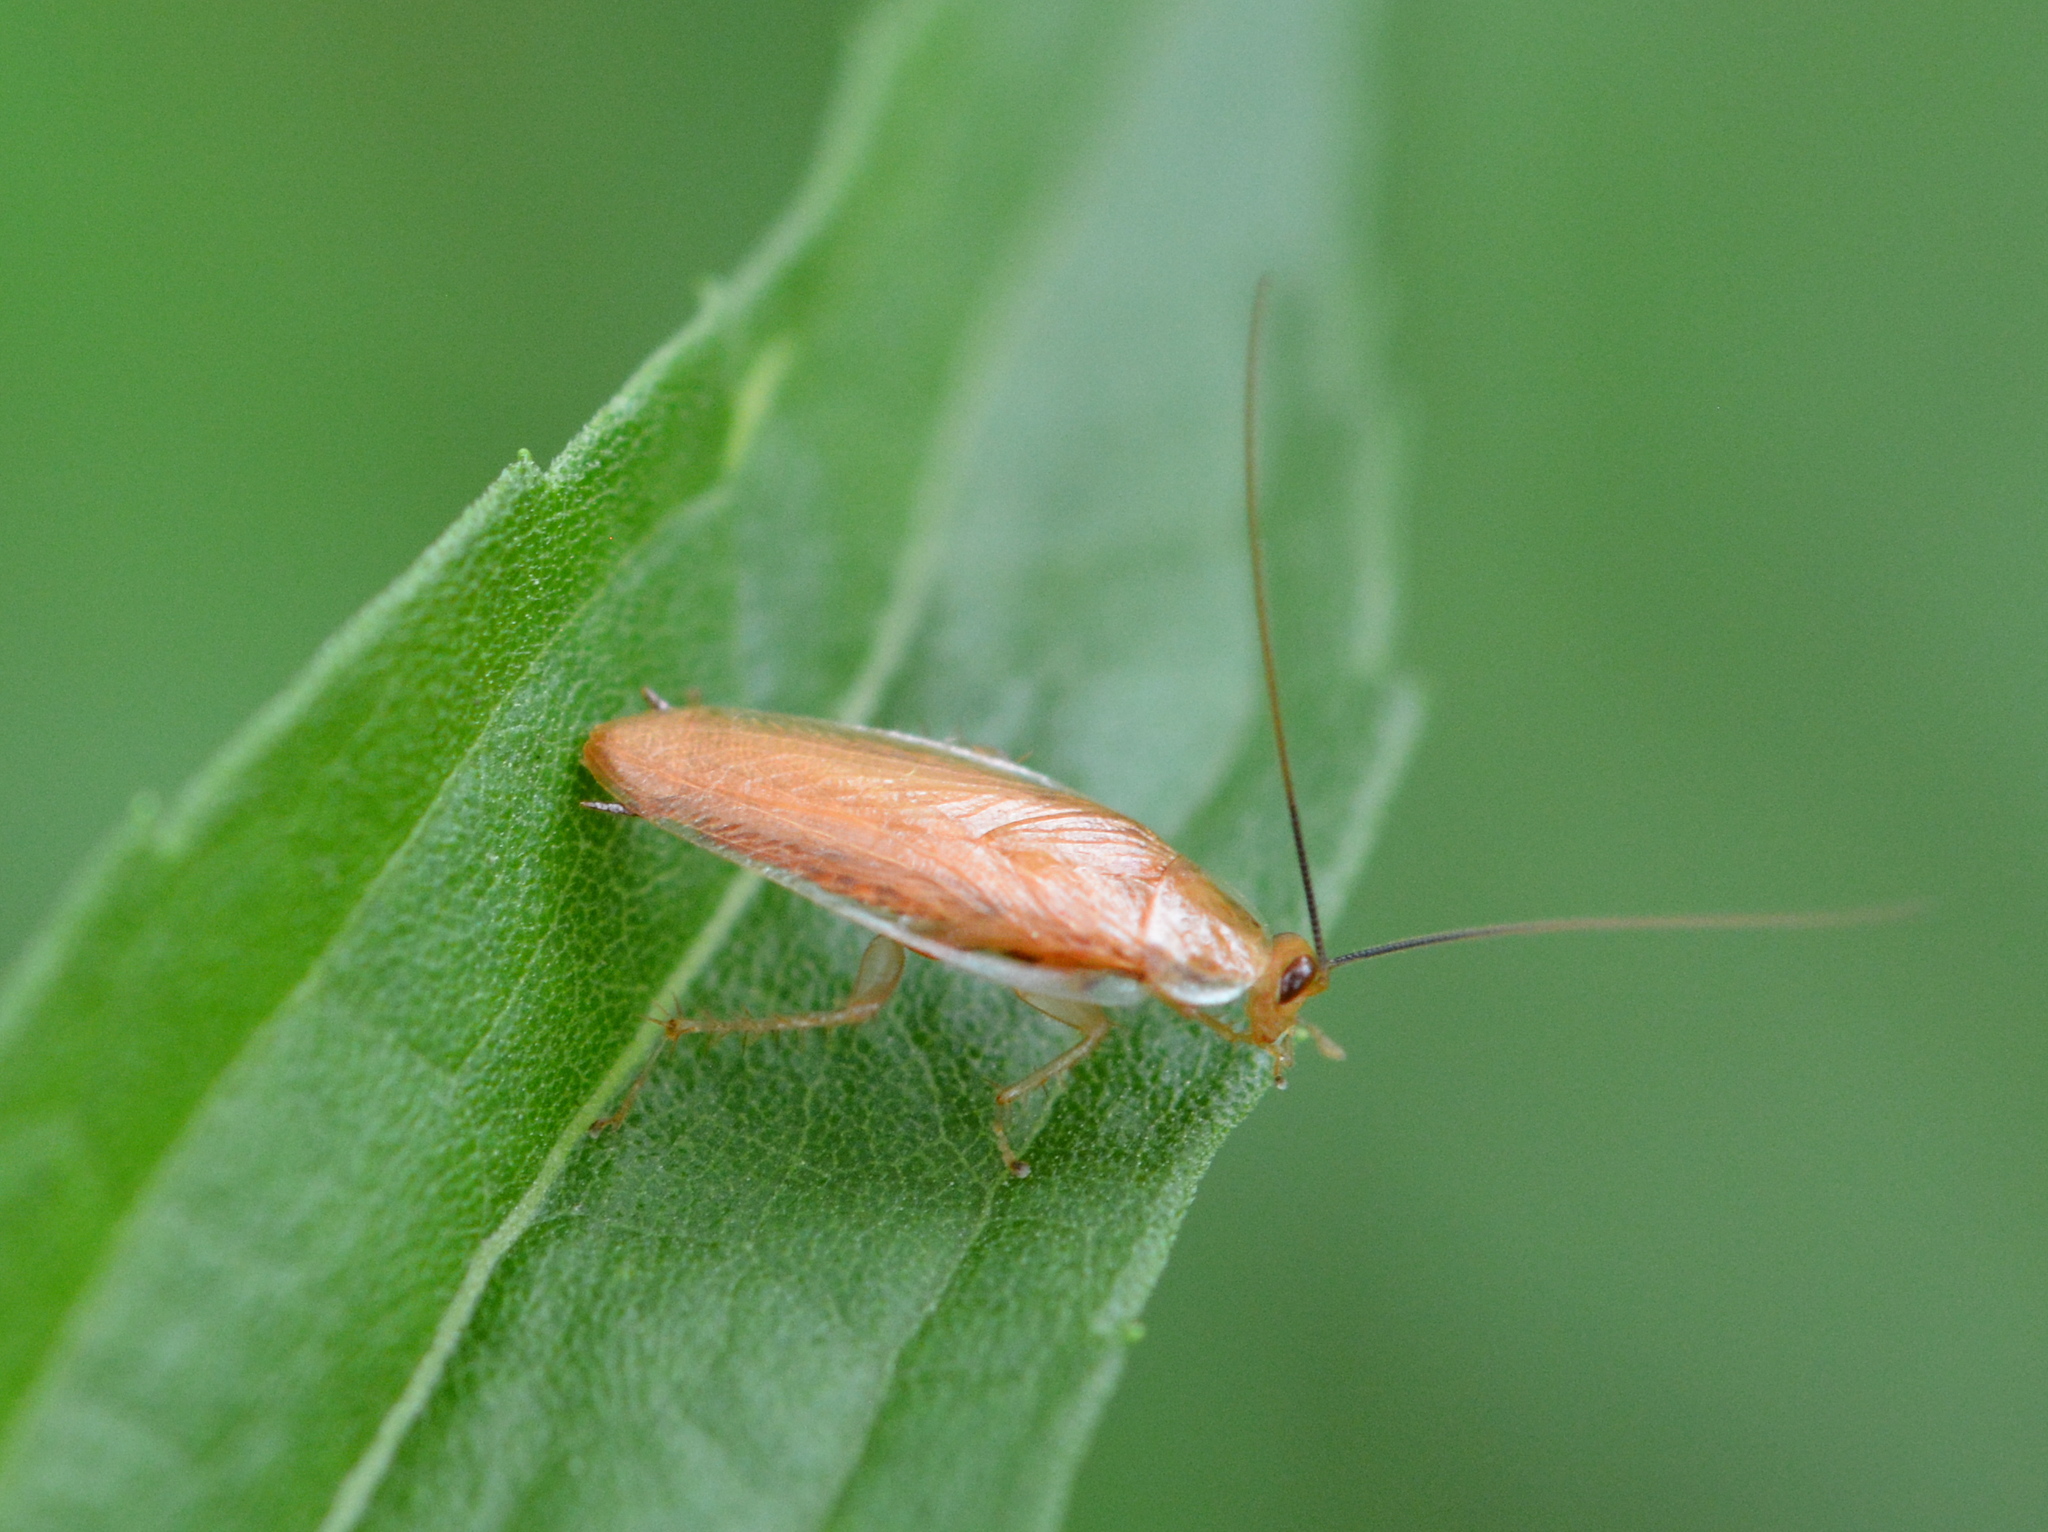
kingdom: Animalia
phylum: Arthropoda
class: Insecta
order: Blattodea
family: Ectobiidae
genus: Chorisoneura
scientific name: Chorisoneura texensis
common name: Small texas cockroach
